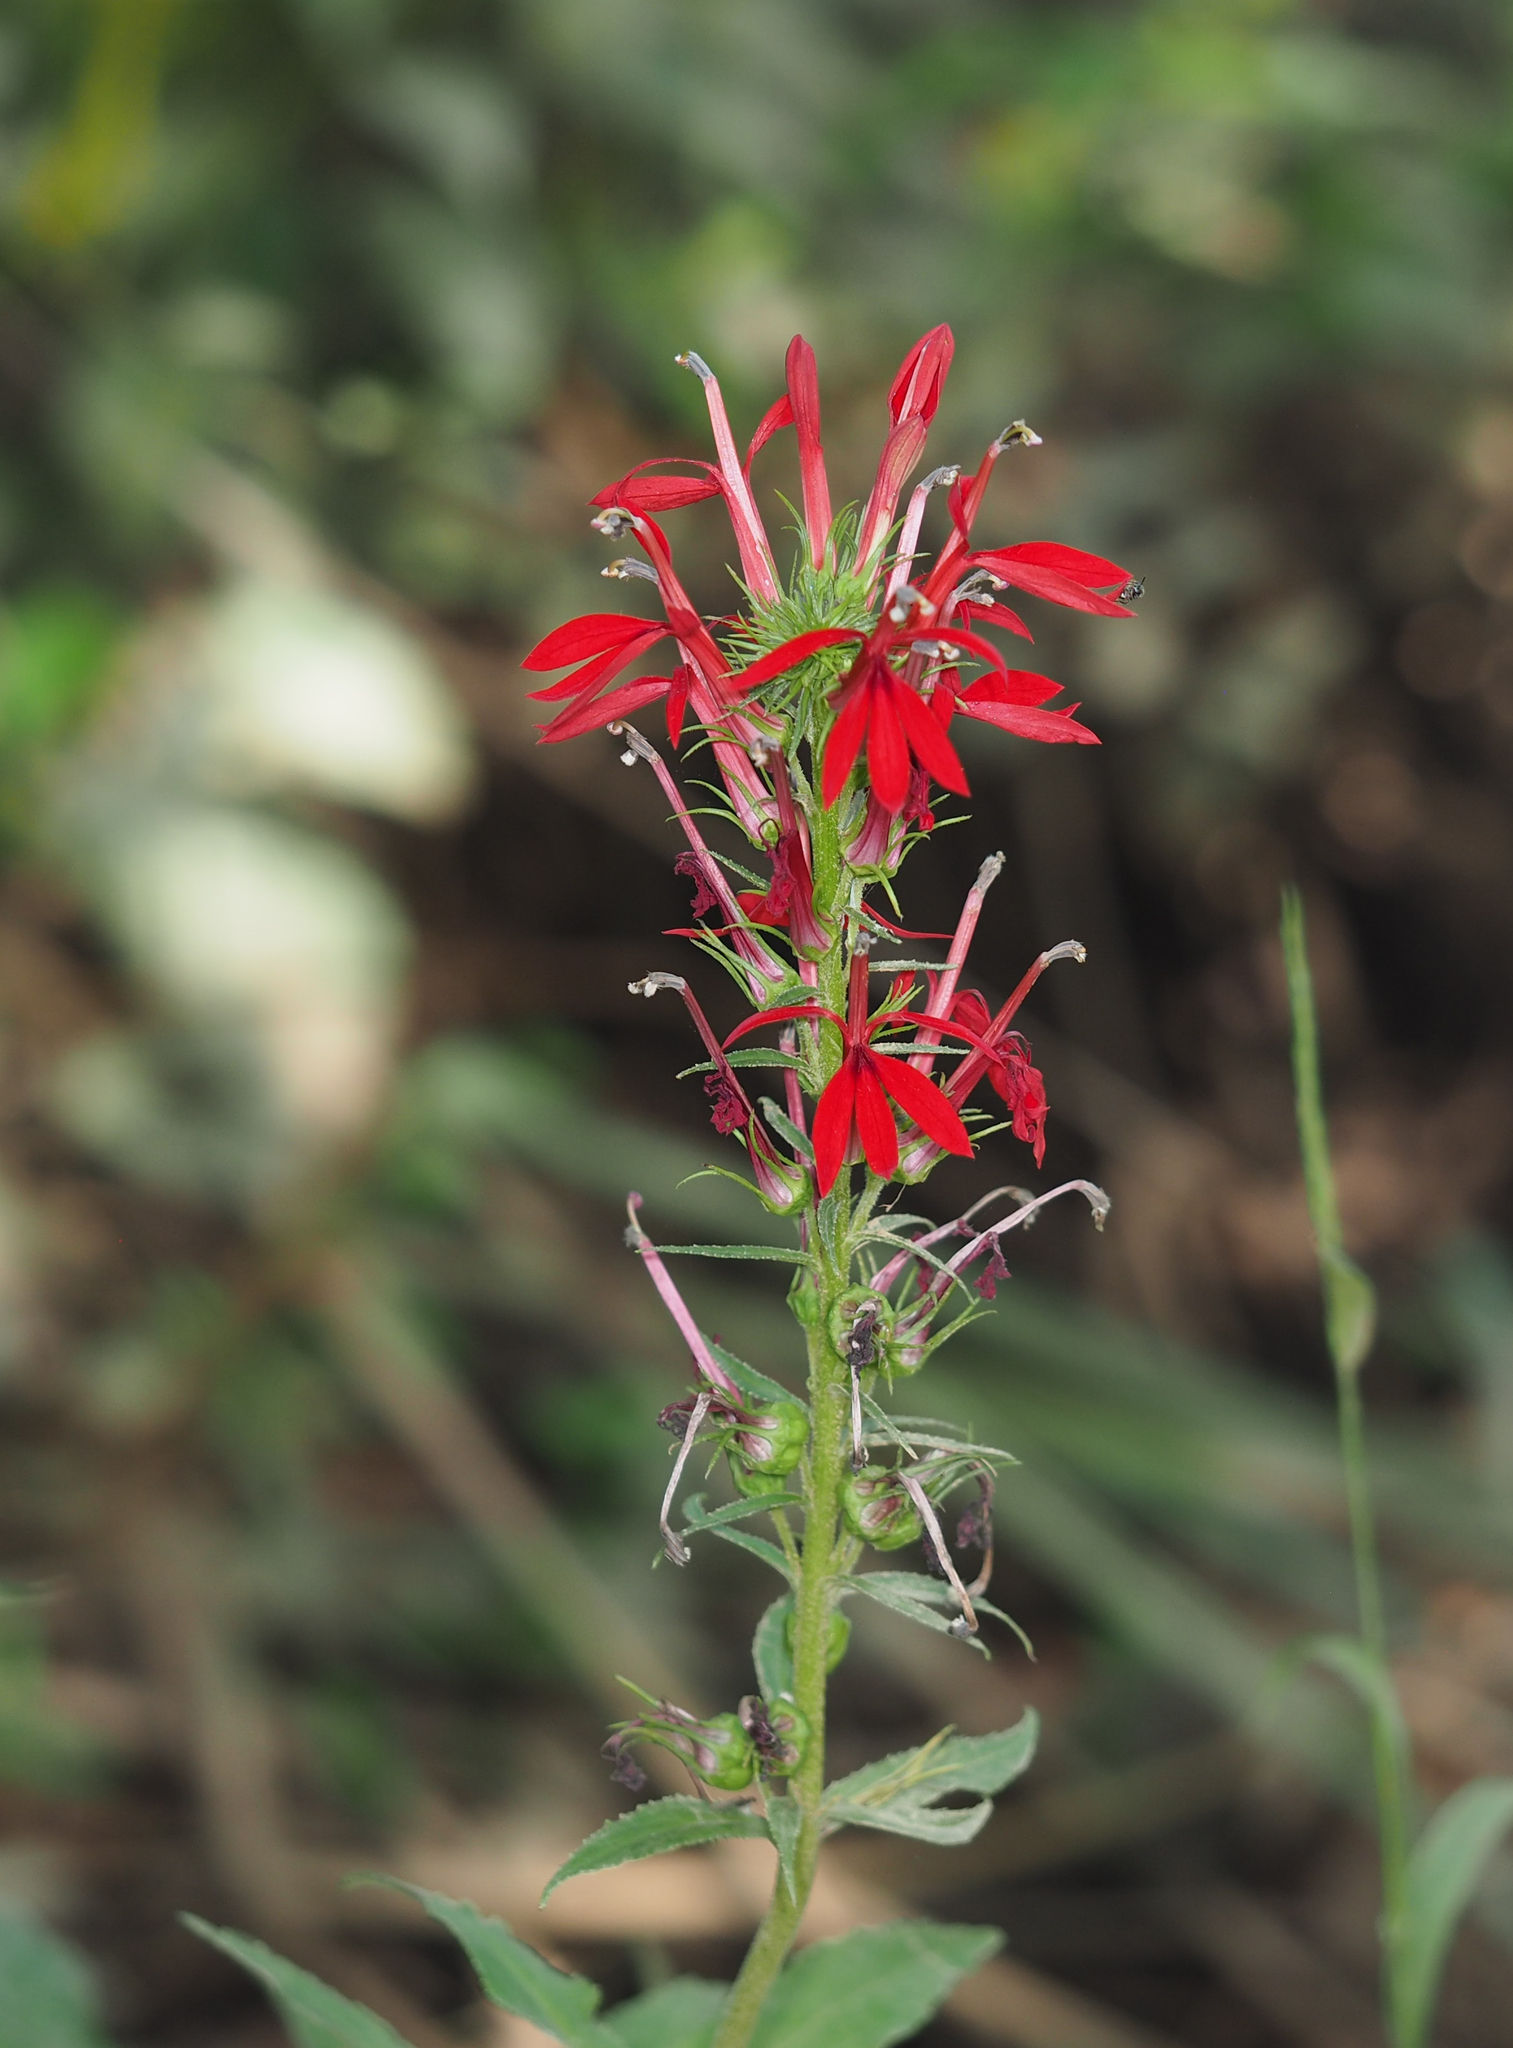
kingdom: Plantae
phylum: Tracheophyta
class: Magnoliopsida
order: Asterales
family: Campanulaceae
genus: Lobelia
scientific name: Lobelia cardinalis
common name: Cardinal flower
